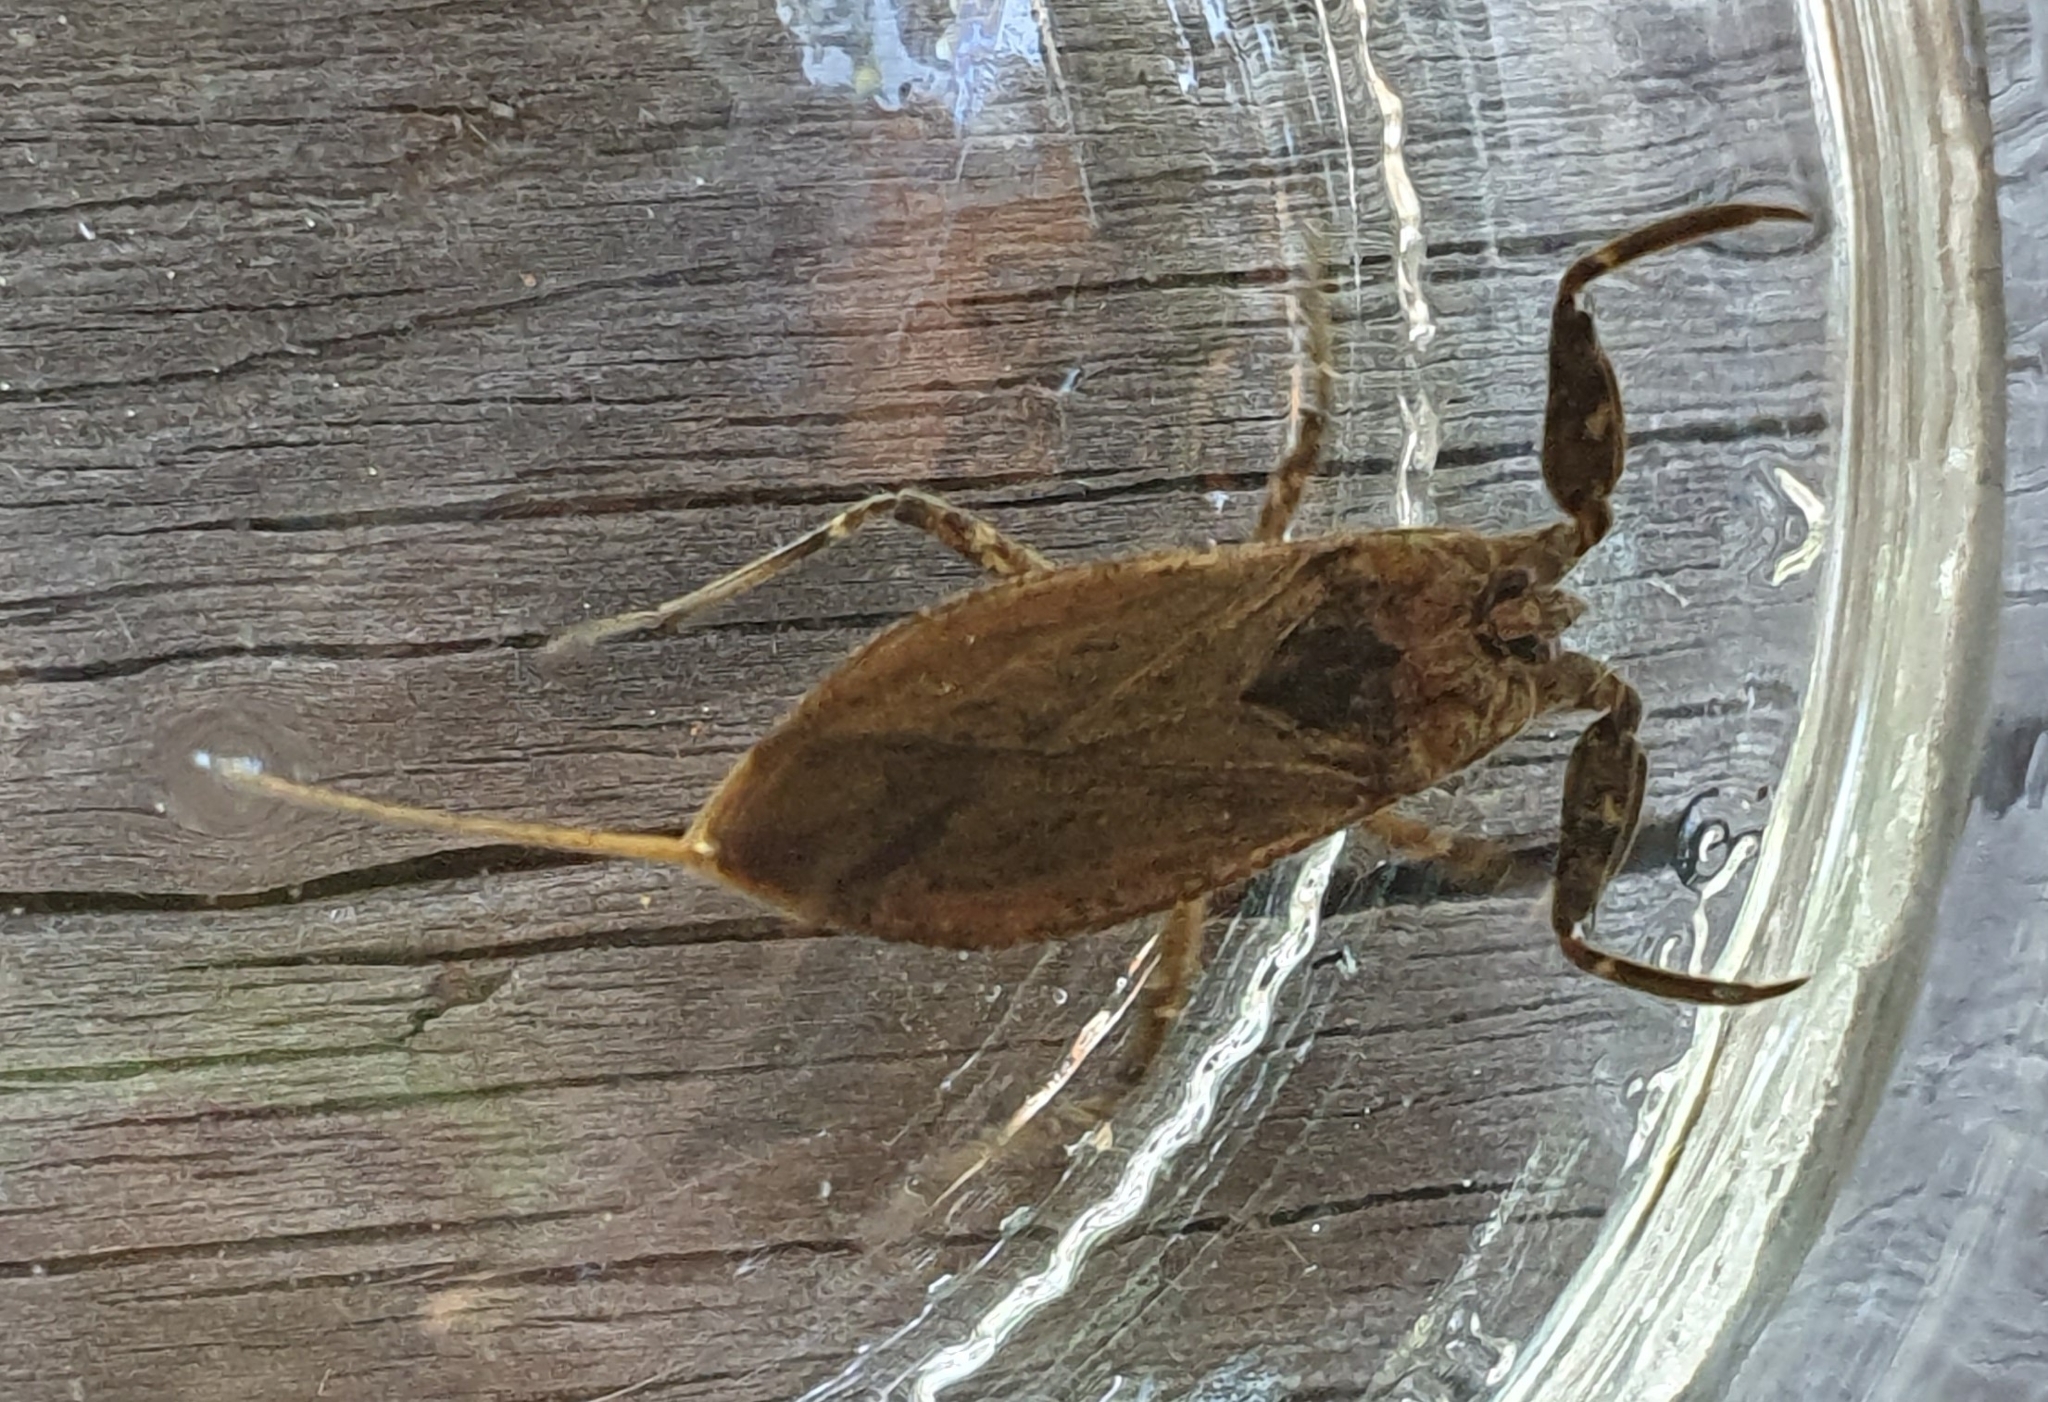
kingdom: Animalia
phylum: Arthropoda
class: Insecta
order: Hemiptera
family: Nepidae
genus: Nepa
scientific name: Nepa cinerea
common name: Water scorpion
